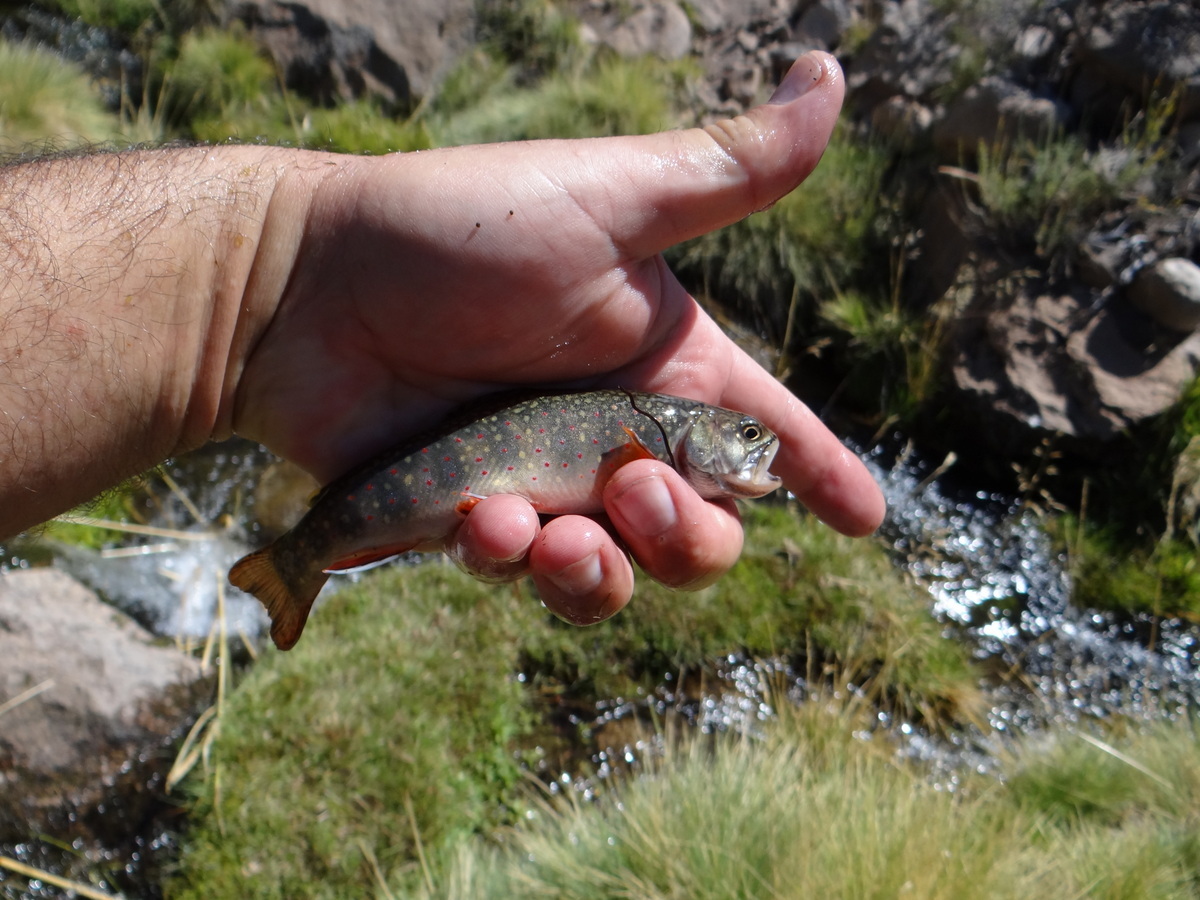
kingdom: Animalia
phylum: Chordata
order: Salmoniformes
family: Salmonidae
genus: Salvelinus
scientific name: Salvelinus fontinalis
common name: Brook trout
